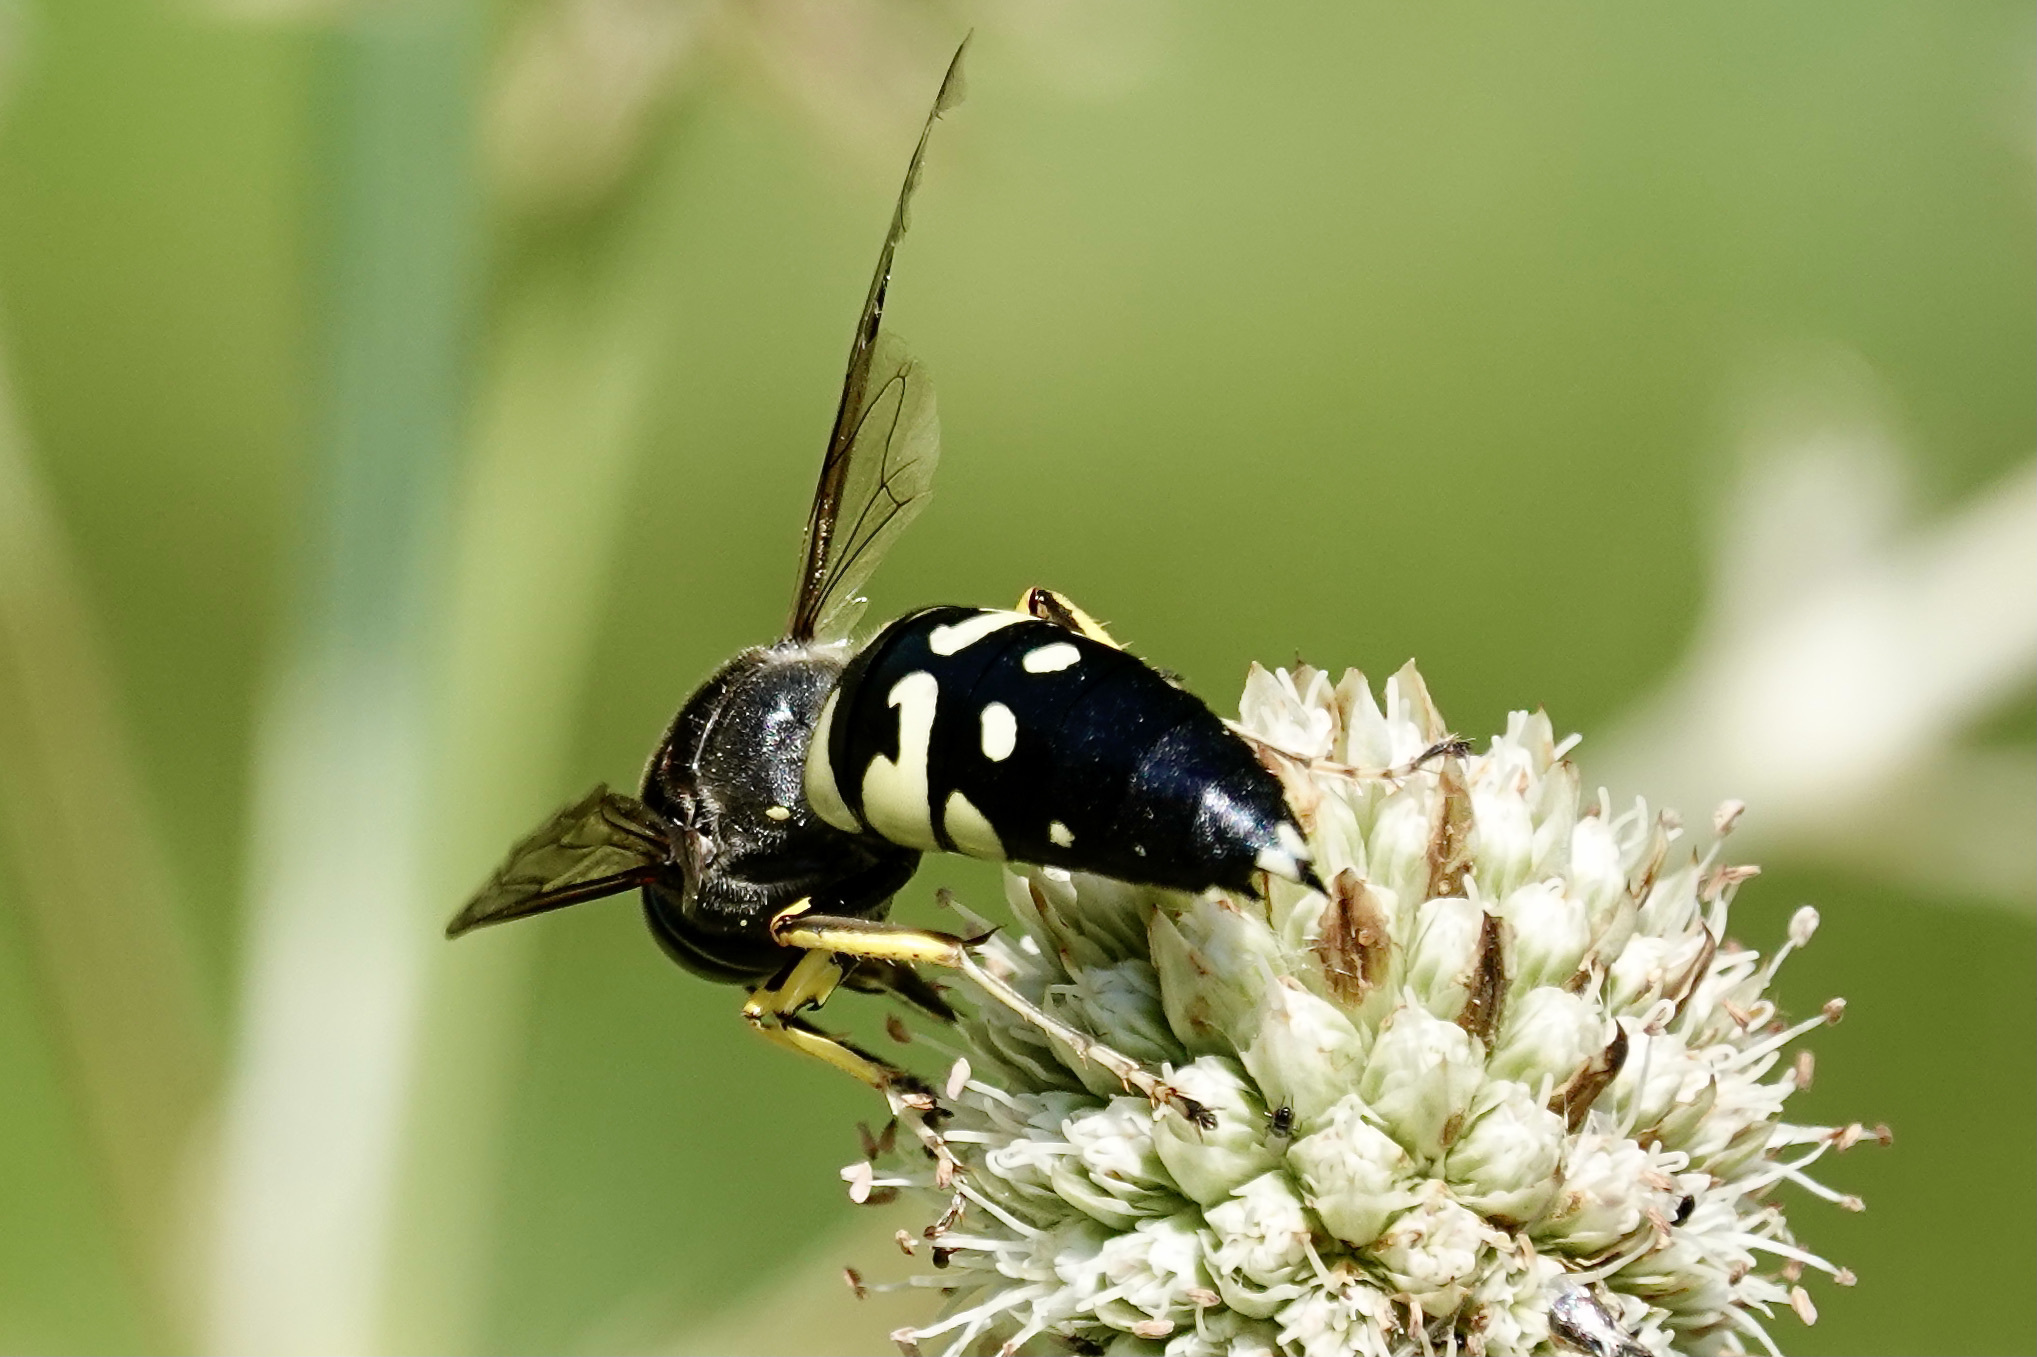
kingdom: Animalia
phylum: Arthropoda
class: Insecta
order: Hymenoptera
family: Crabronidae
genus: Stictia
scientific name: Stictia carolina
